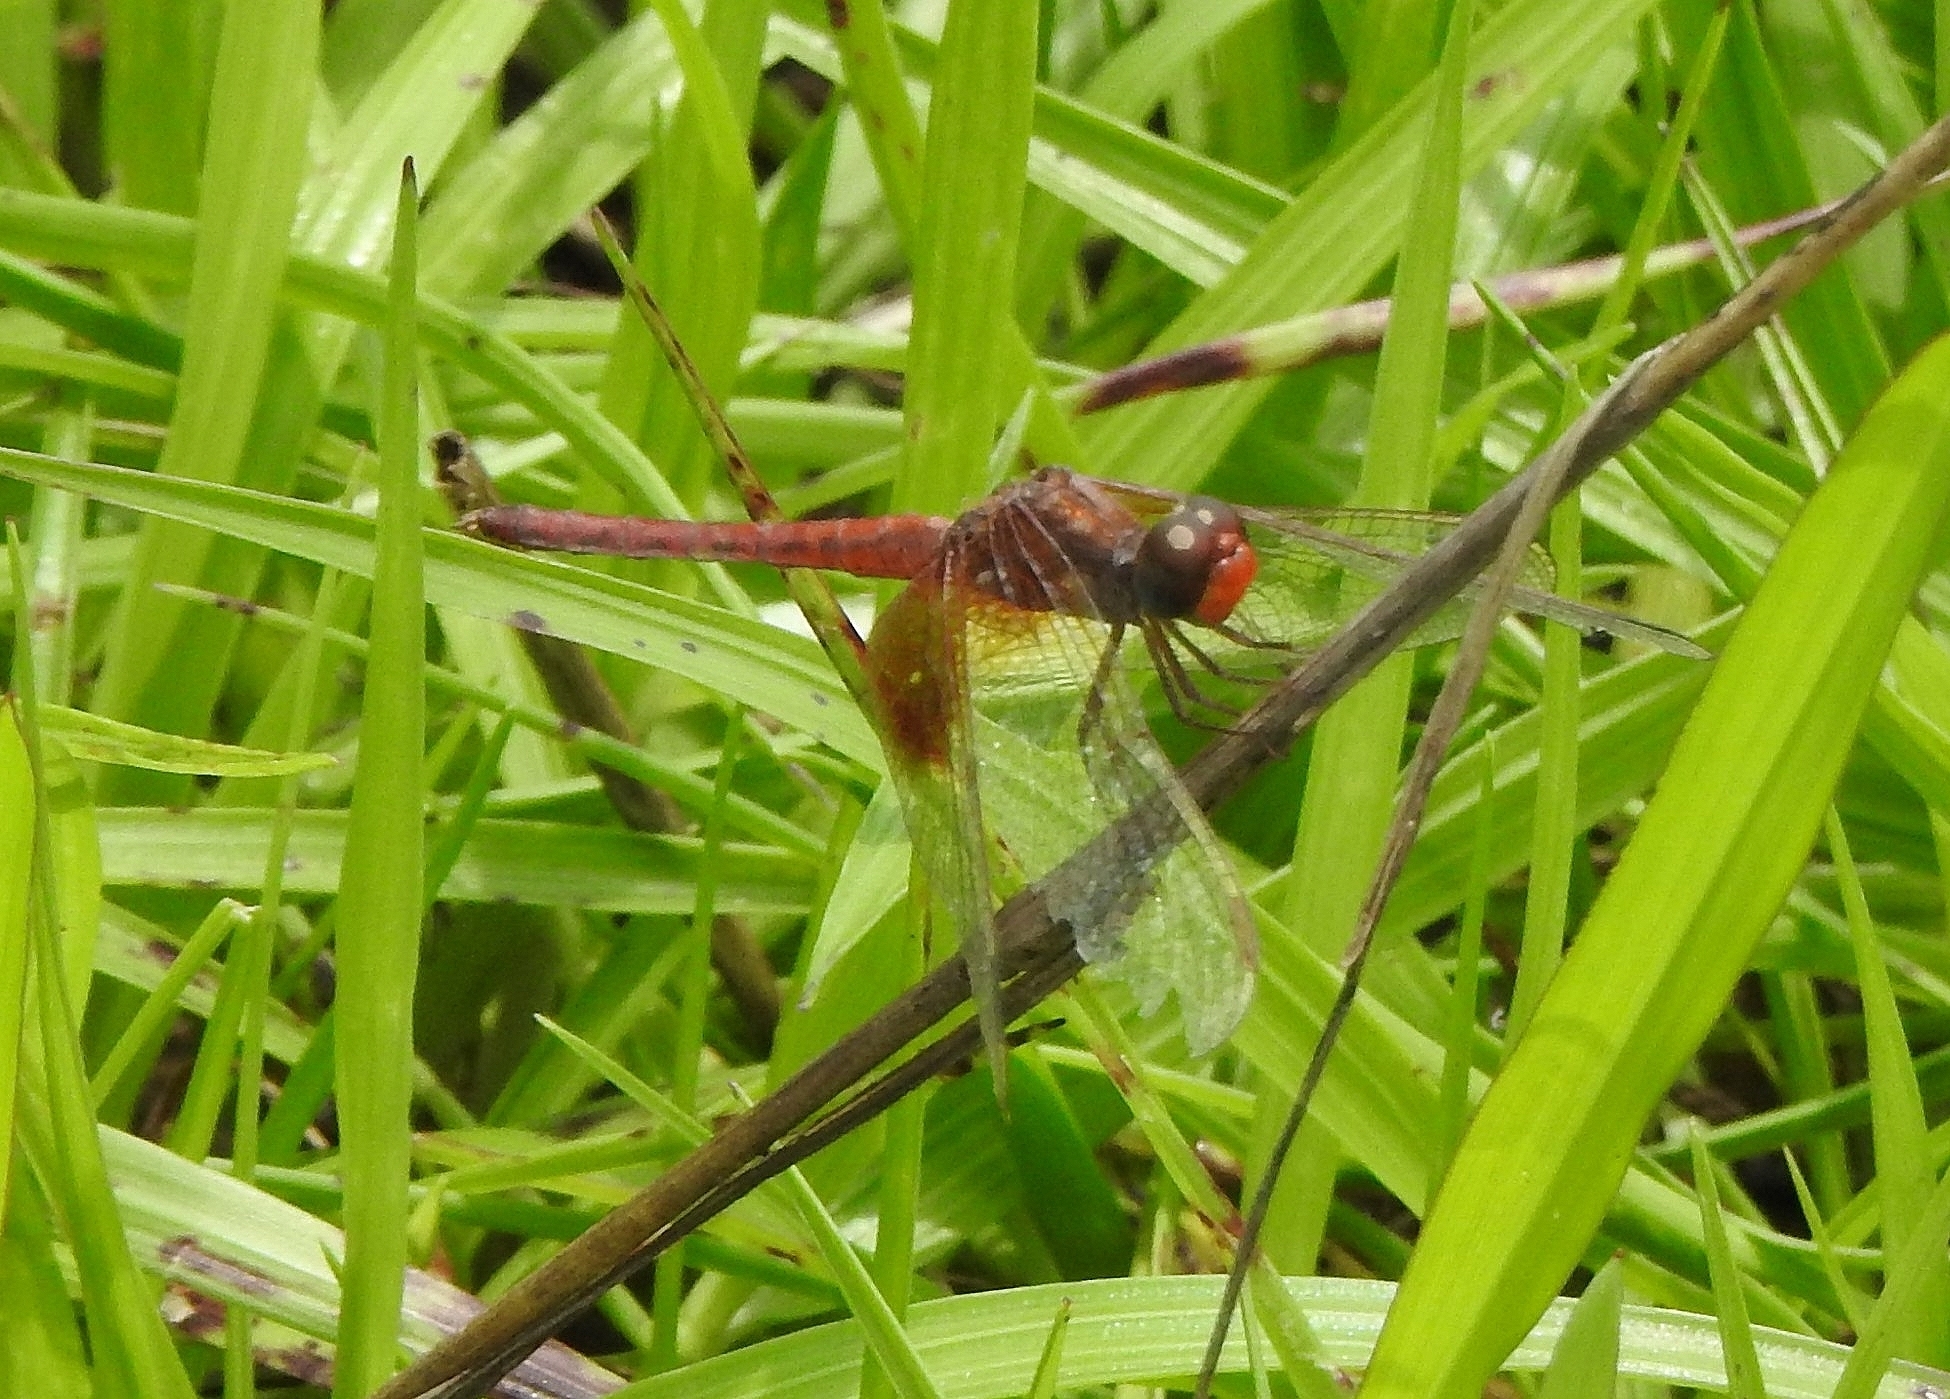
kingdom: Animalia
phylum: Arthropoda
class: Insecta
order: Odonata
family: Libellulidae
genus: Neurothemis
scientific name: Neurothemis intermedia
